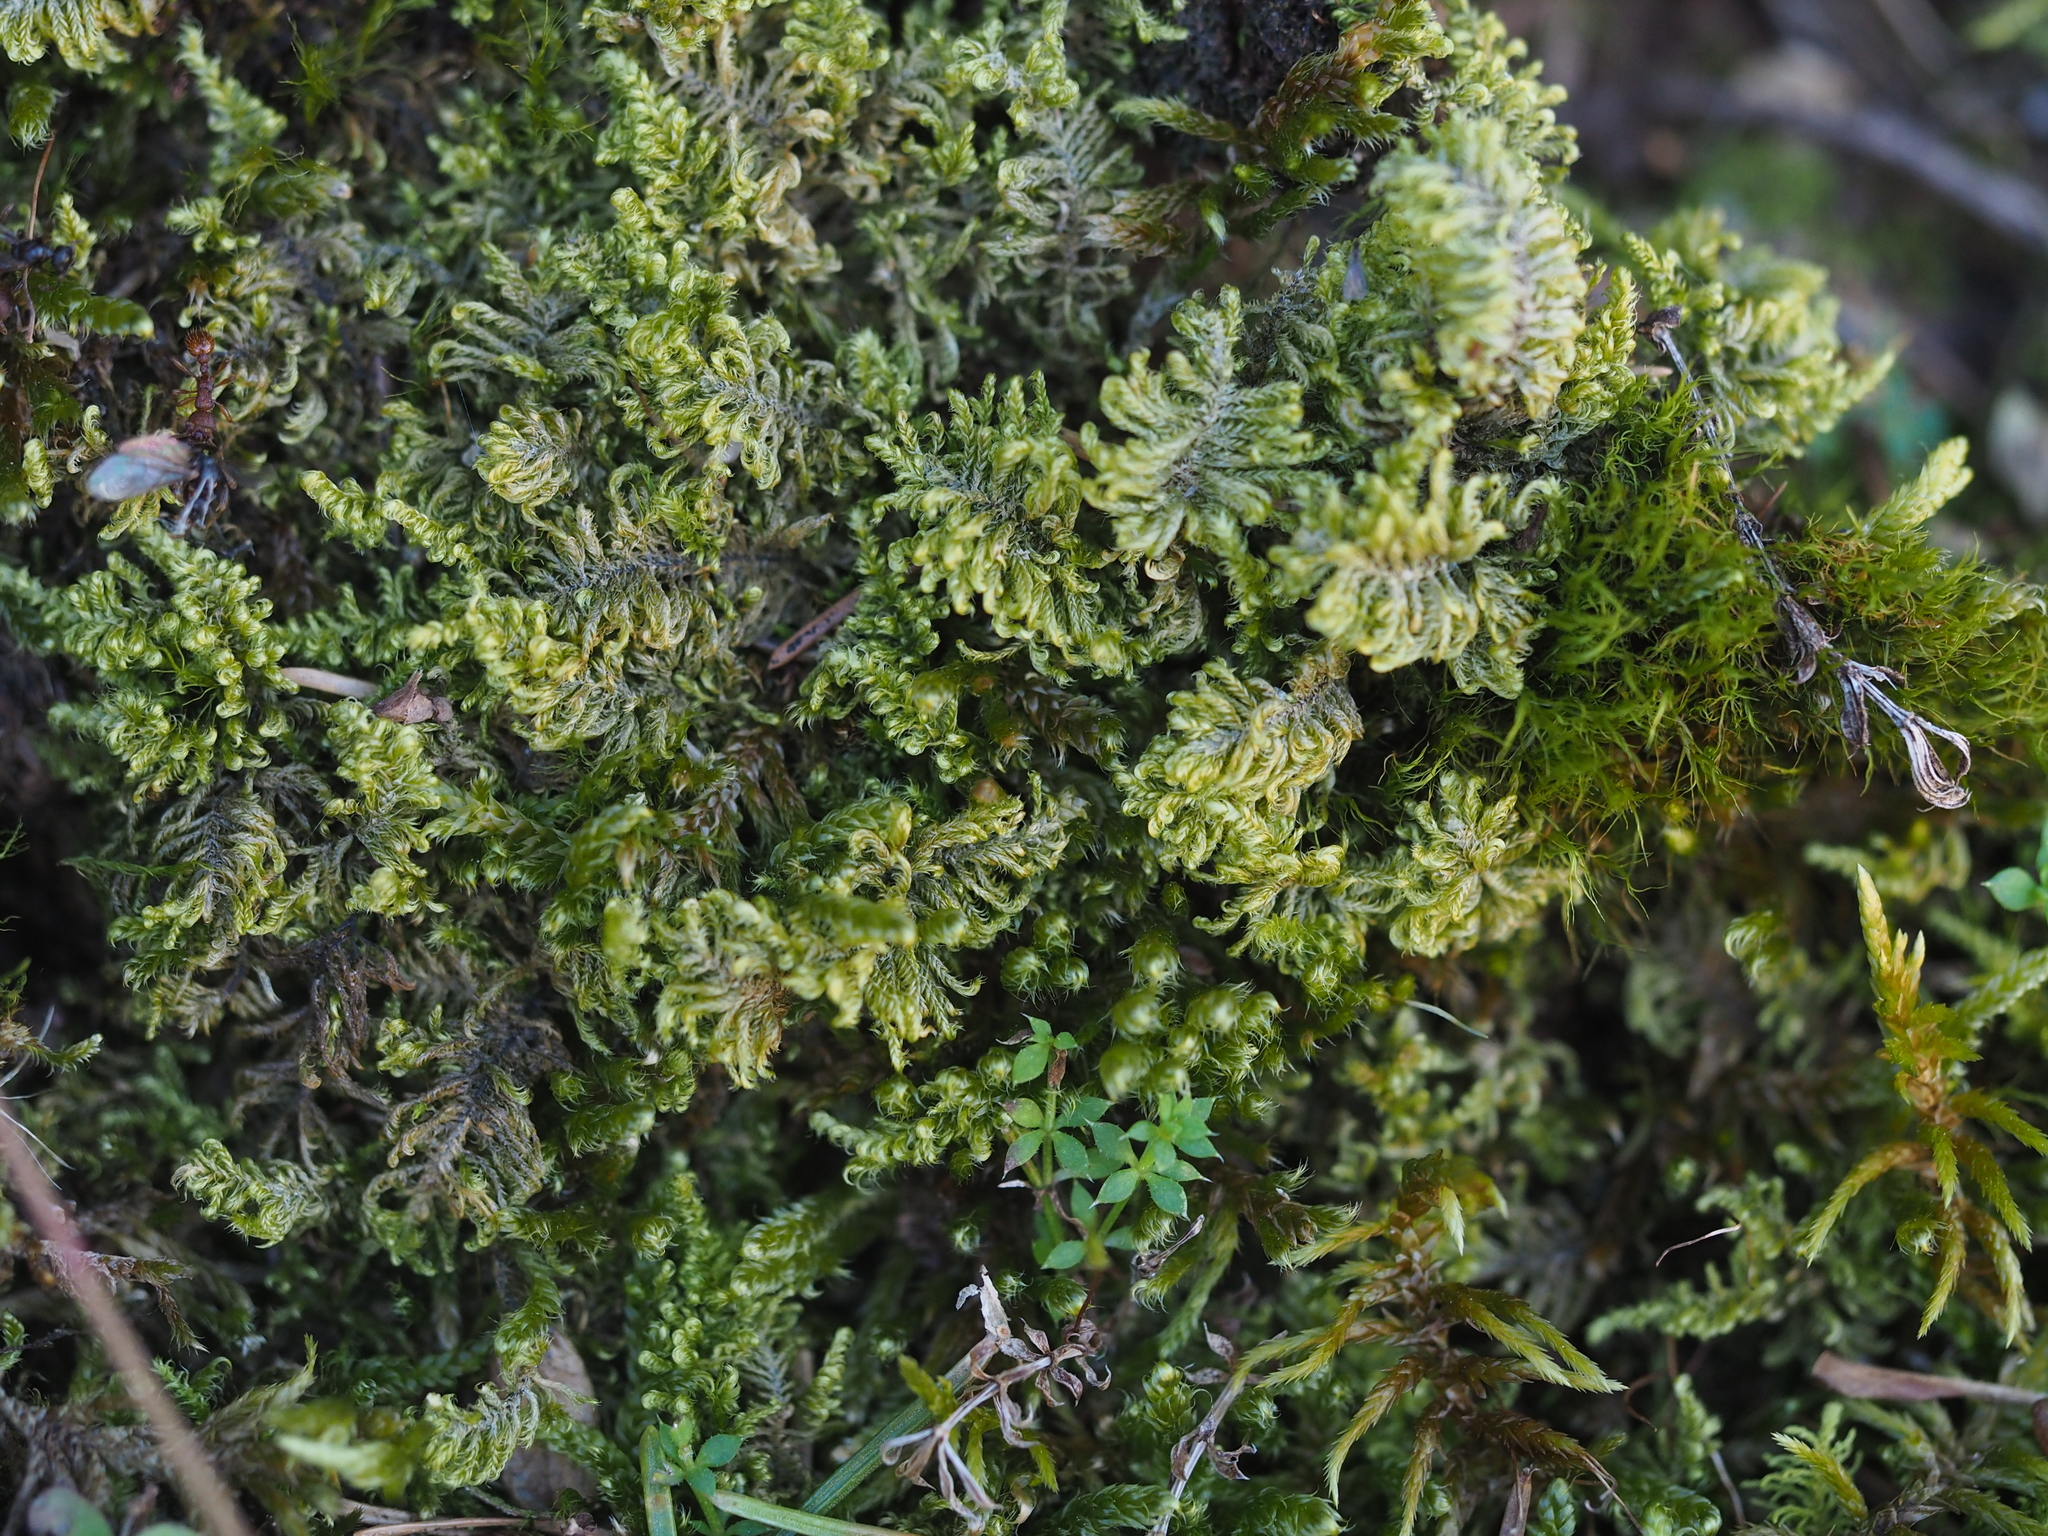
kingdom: Plantae
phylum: Bryophyta
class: Bryopsida
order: Hypnales
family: Myuriaceae
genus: Ctenidium
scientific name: Ctenidium molluscum
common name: Chalk comb-moss
